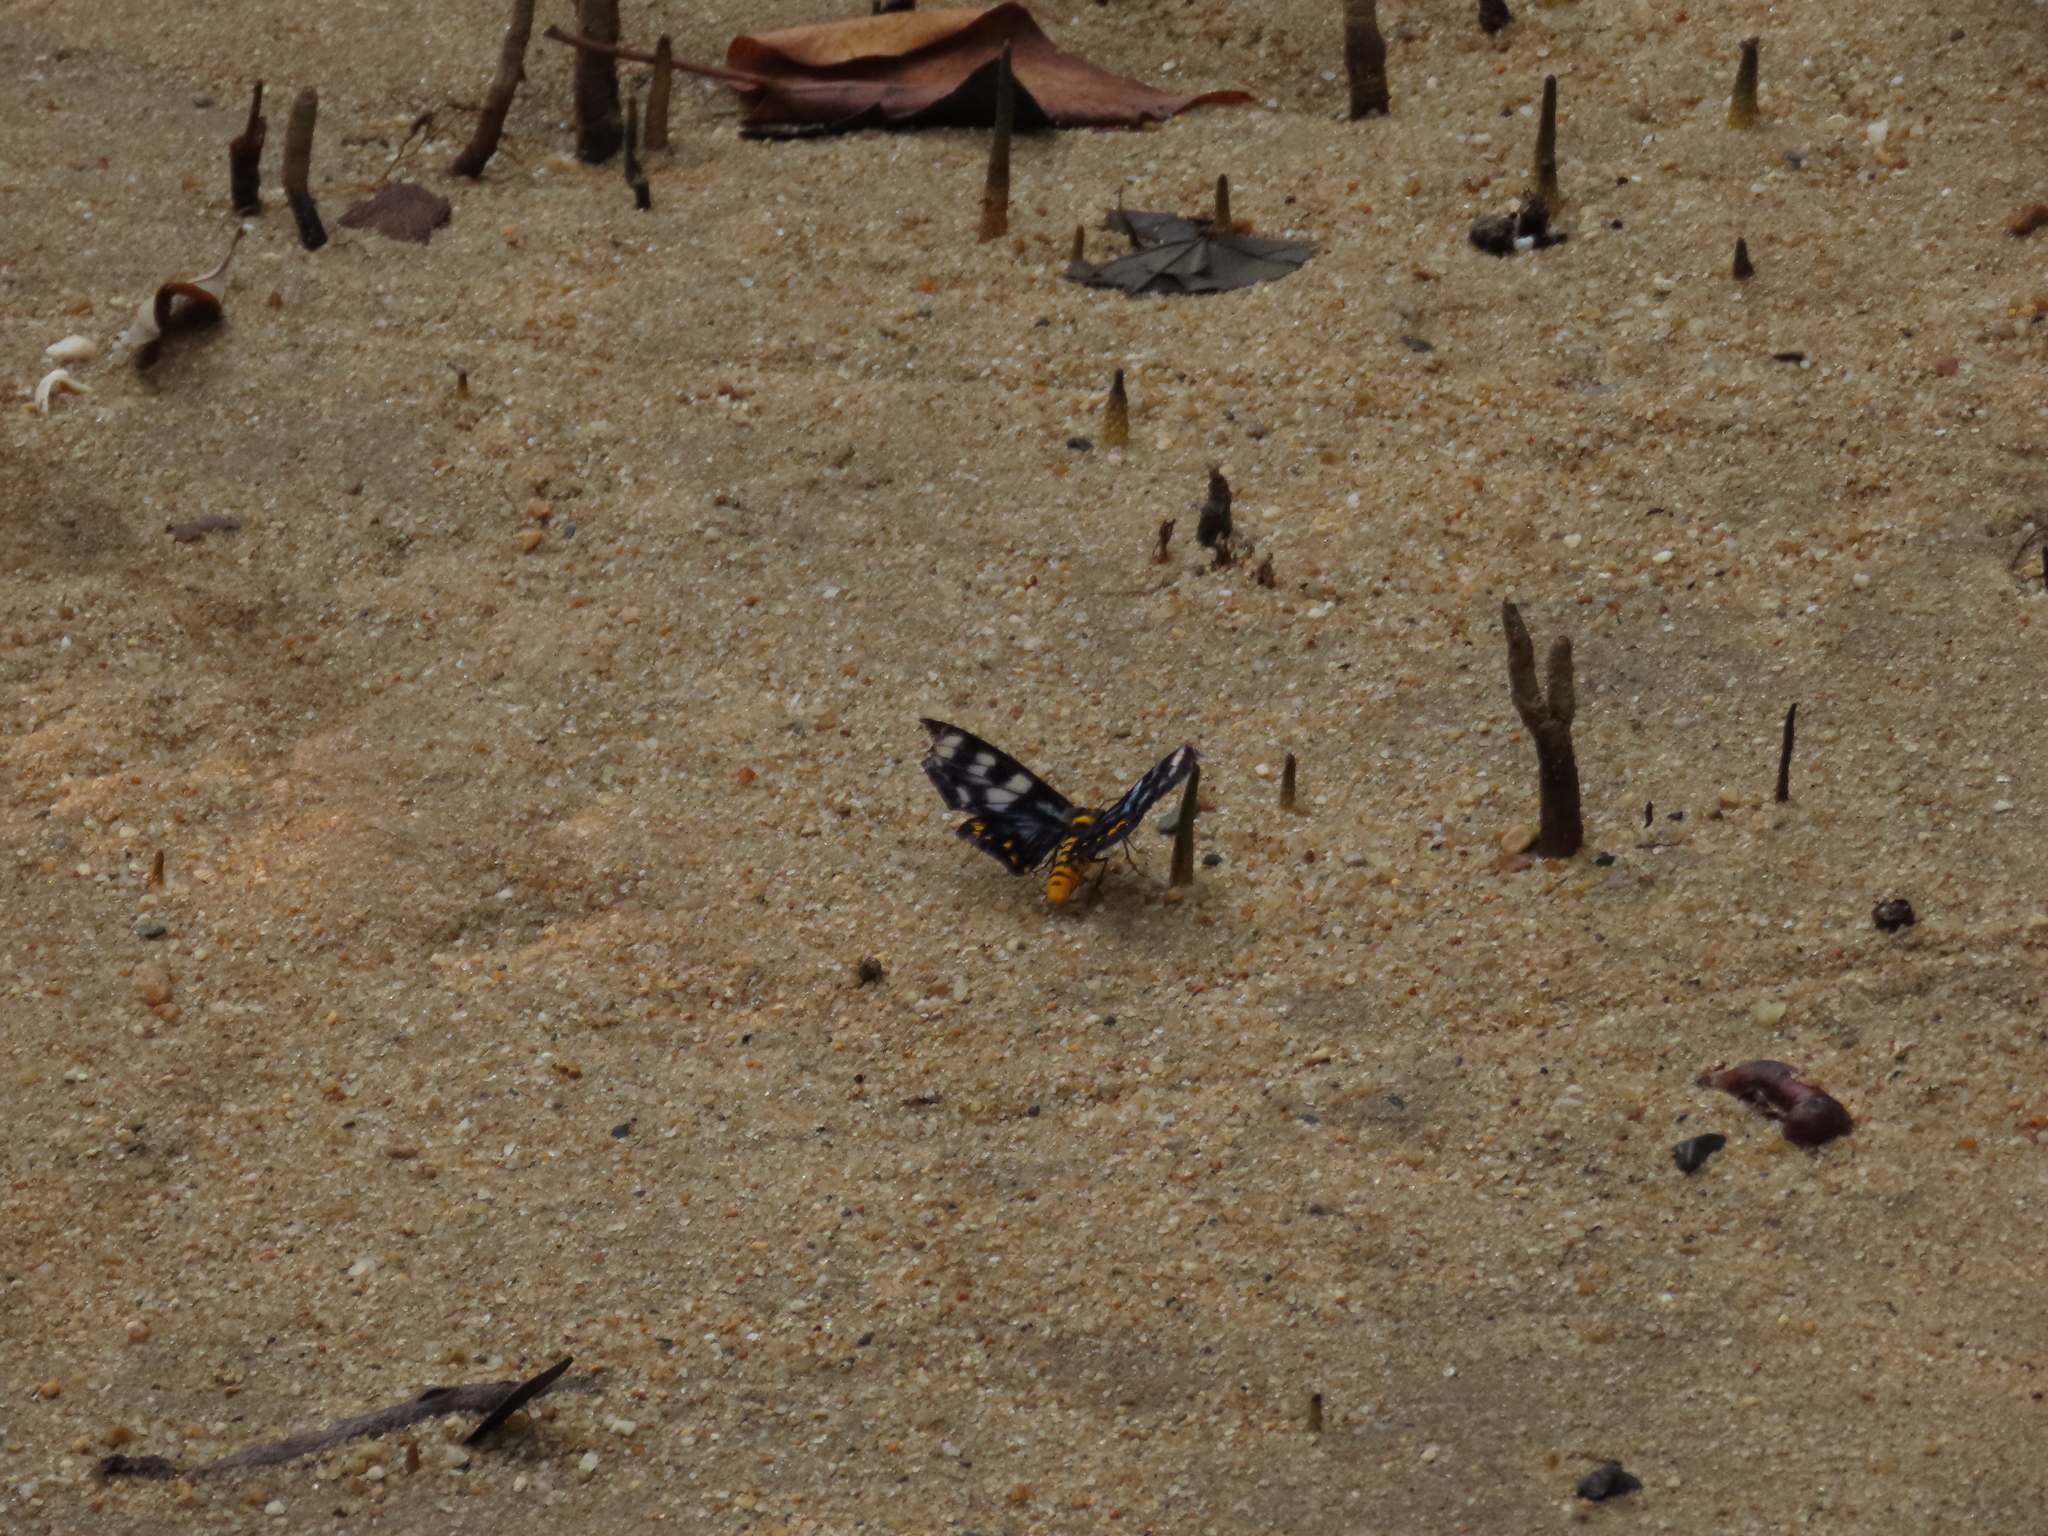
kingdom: Animalia
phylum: Arthropoda
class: Insecta
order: Lepidoptera
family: Geometridae
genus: Dysphania
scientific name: Dysphania numana
